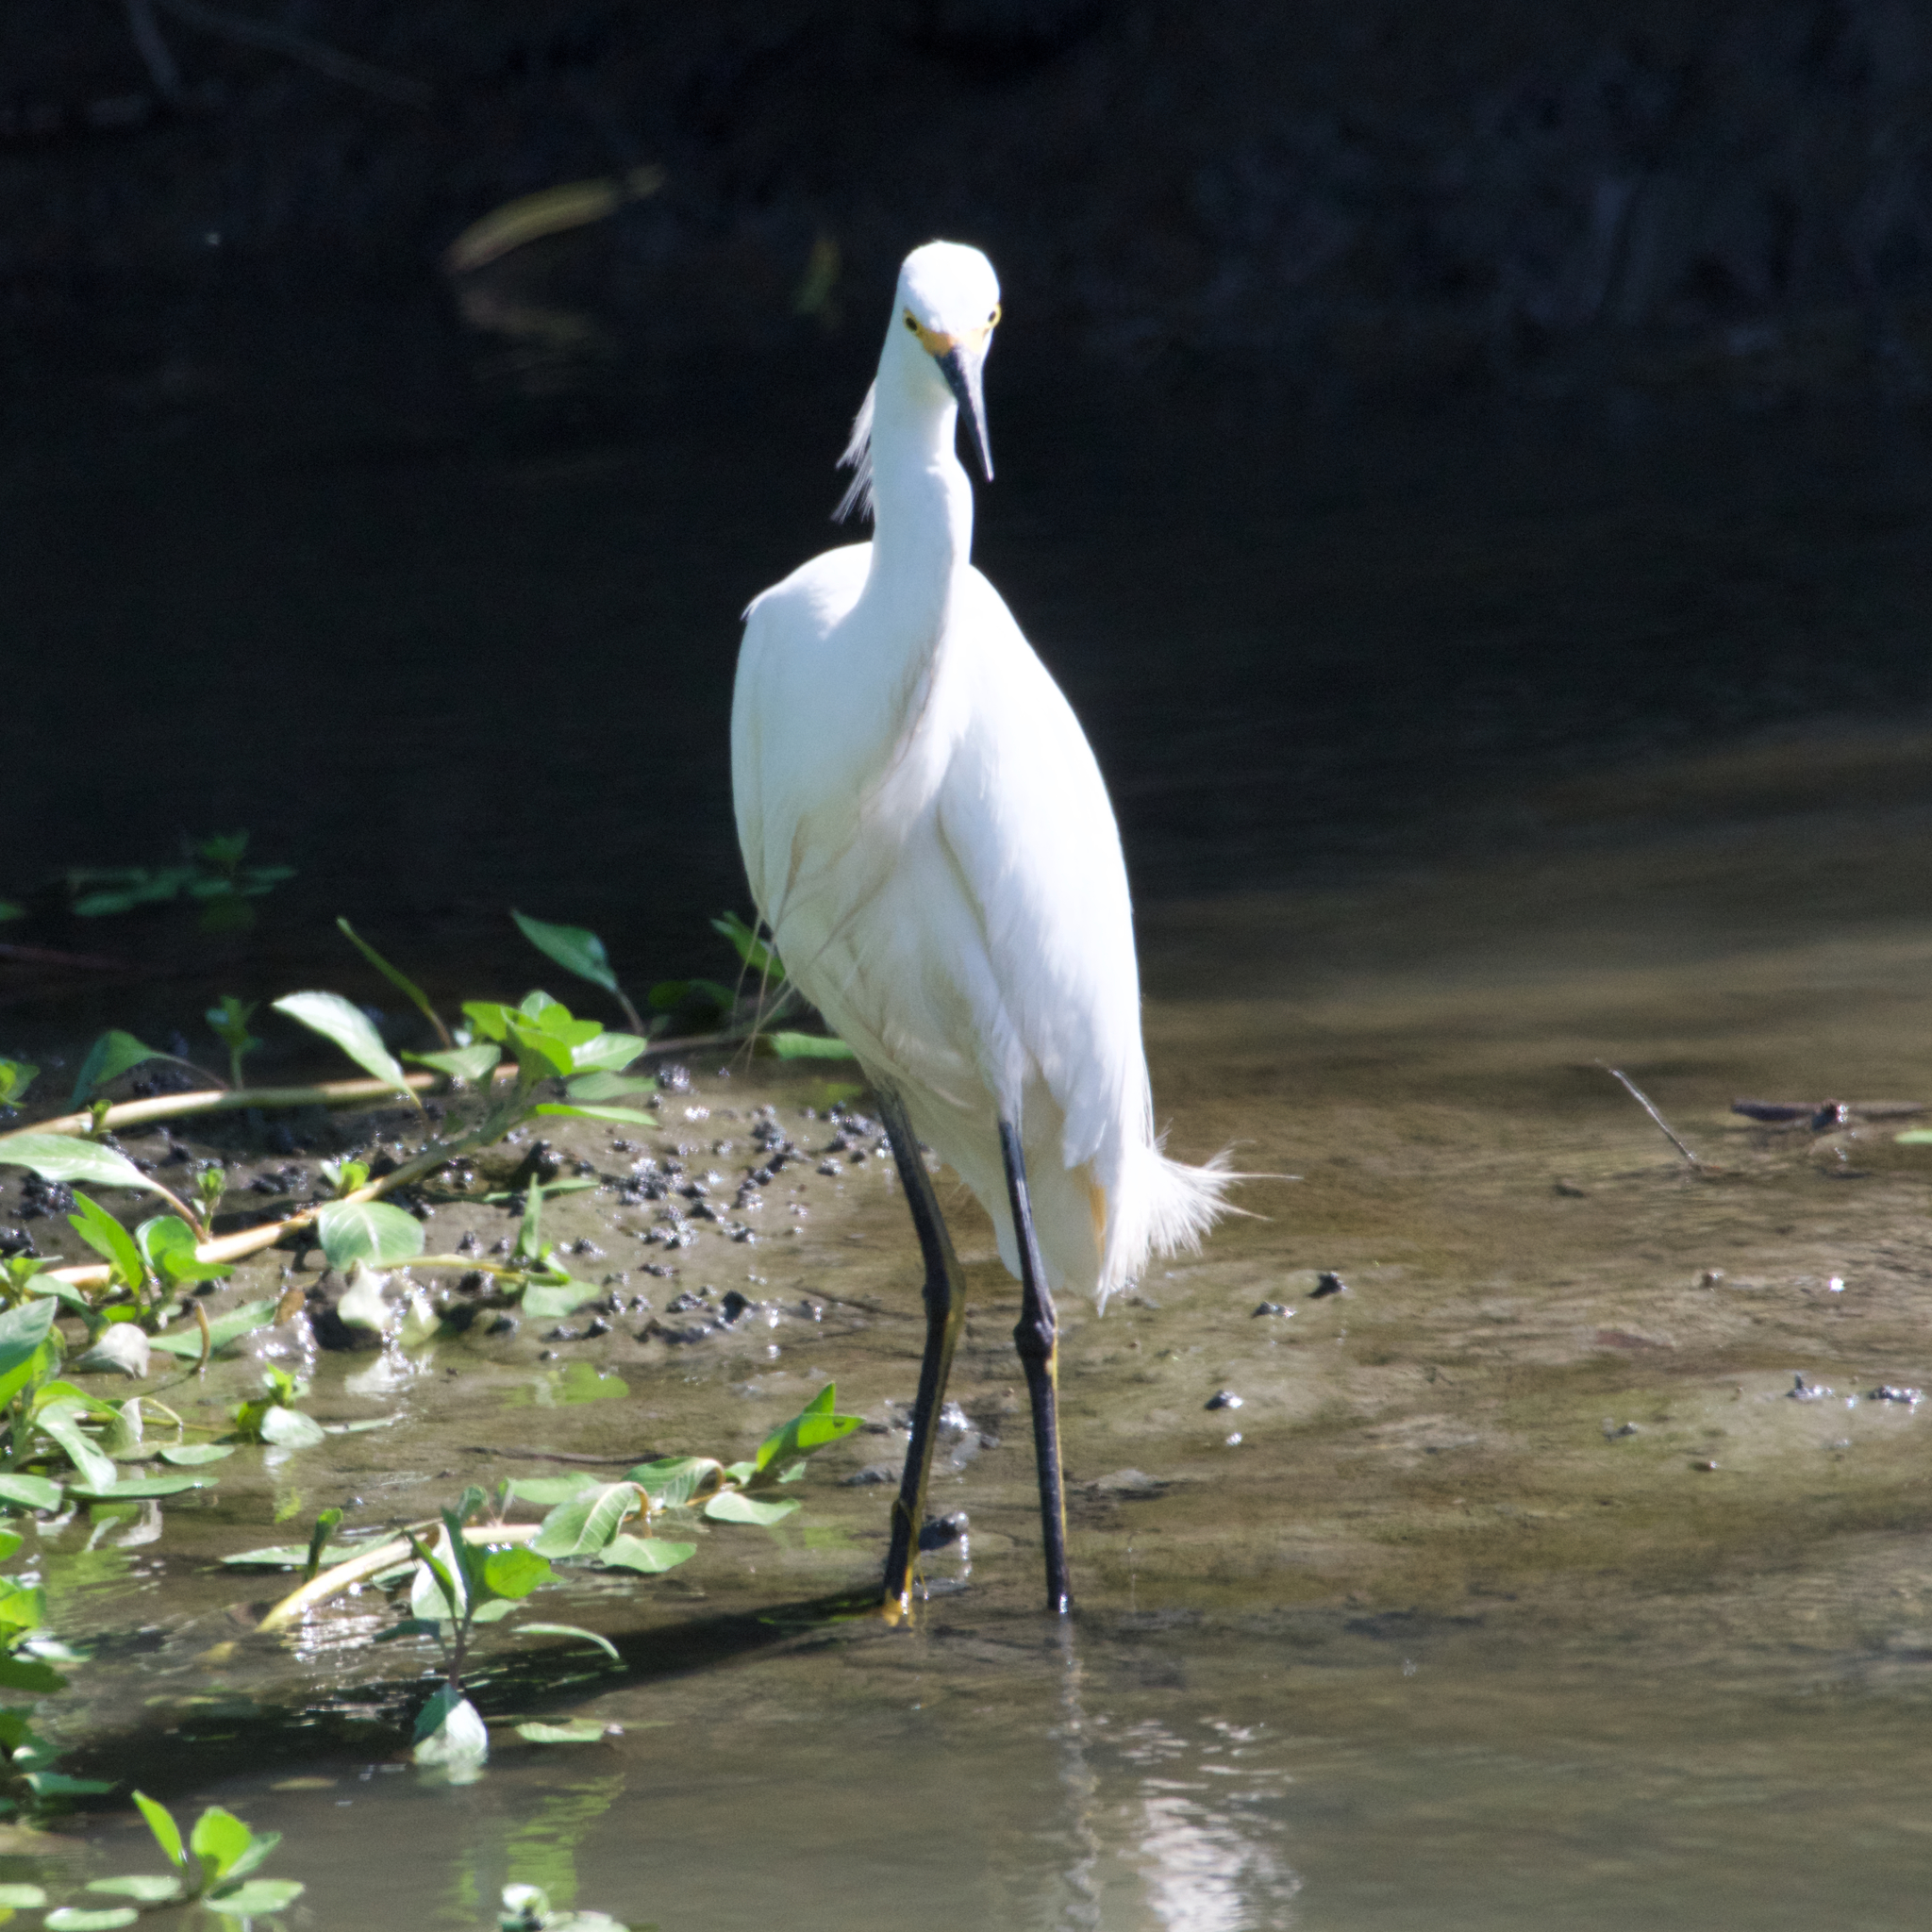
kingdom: Animalia
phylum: Chordata
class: Aves
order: Pelecaniformes
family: Ardeidae
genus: Egretta
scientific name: Egretta thula
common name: Snowy egret
